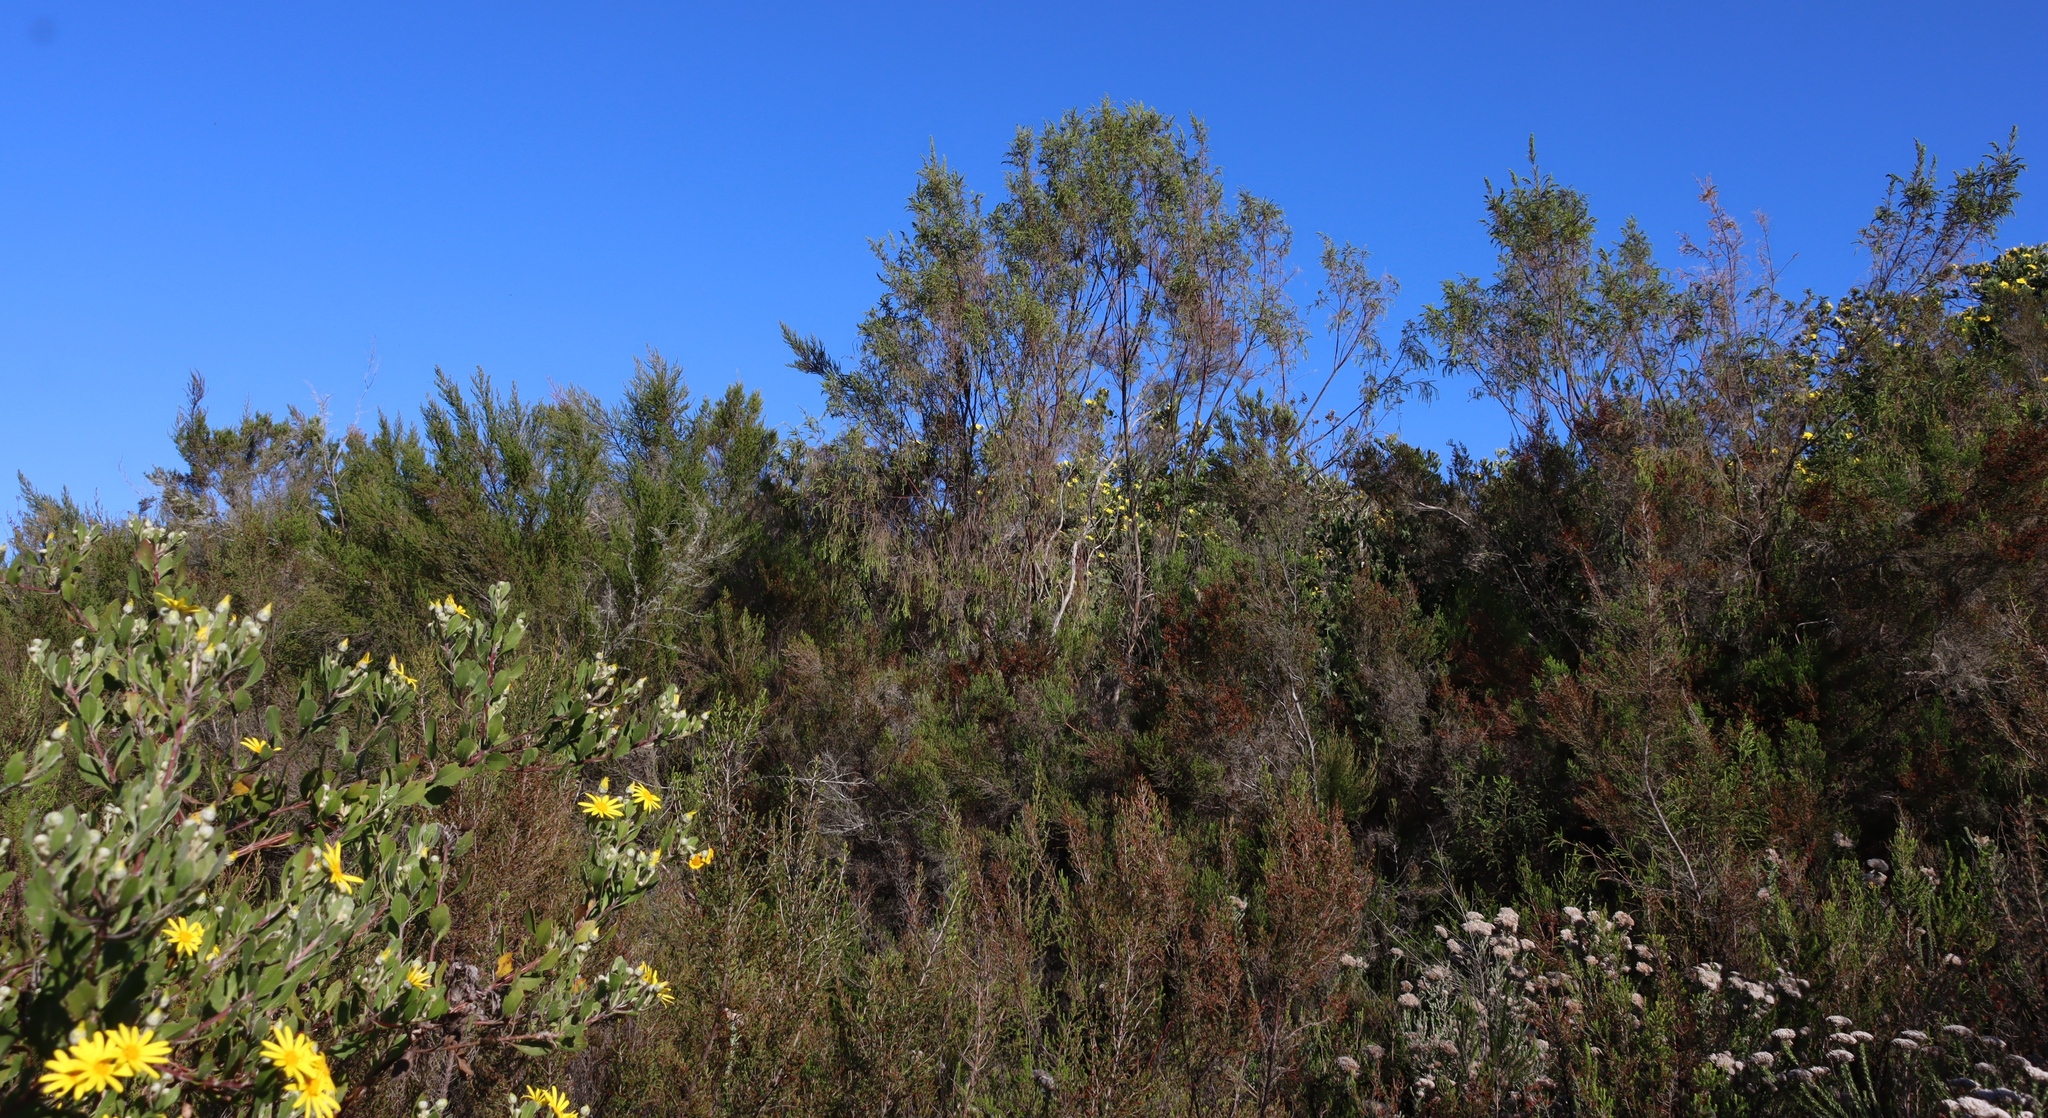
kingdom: Plantae
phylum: Tracheophyta
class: Magnoliopsida
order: Malvales
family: Thymelaeaceae
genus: Passerina
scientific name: Passerina falcifolia
